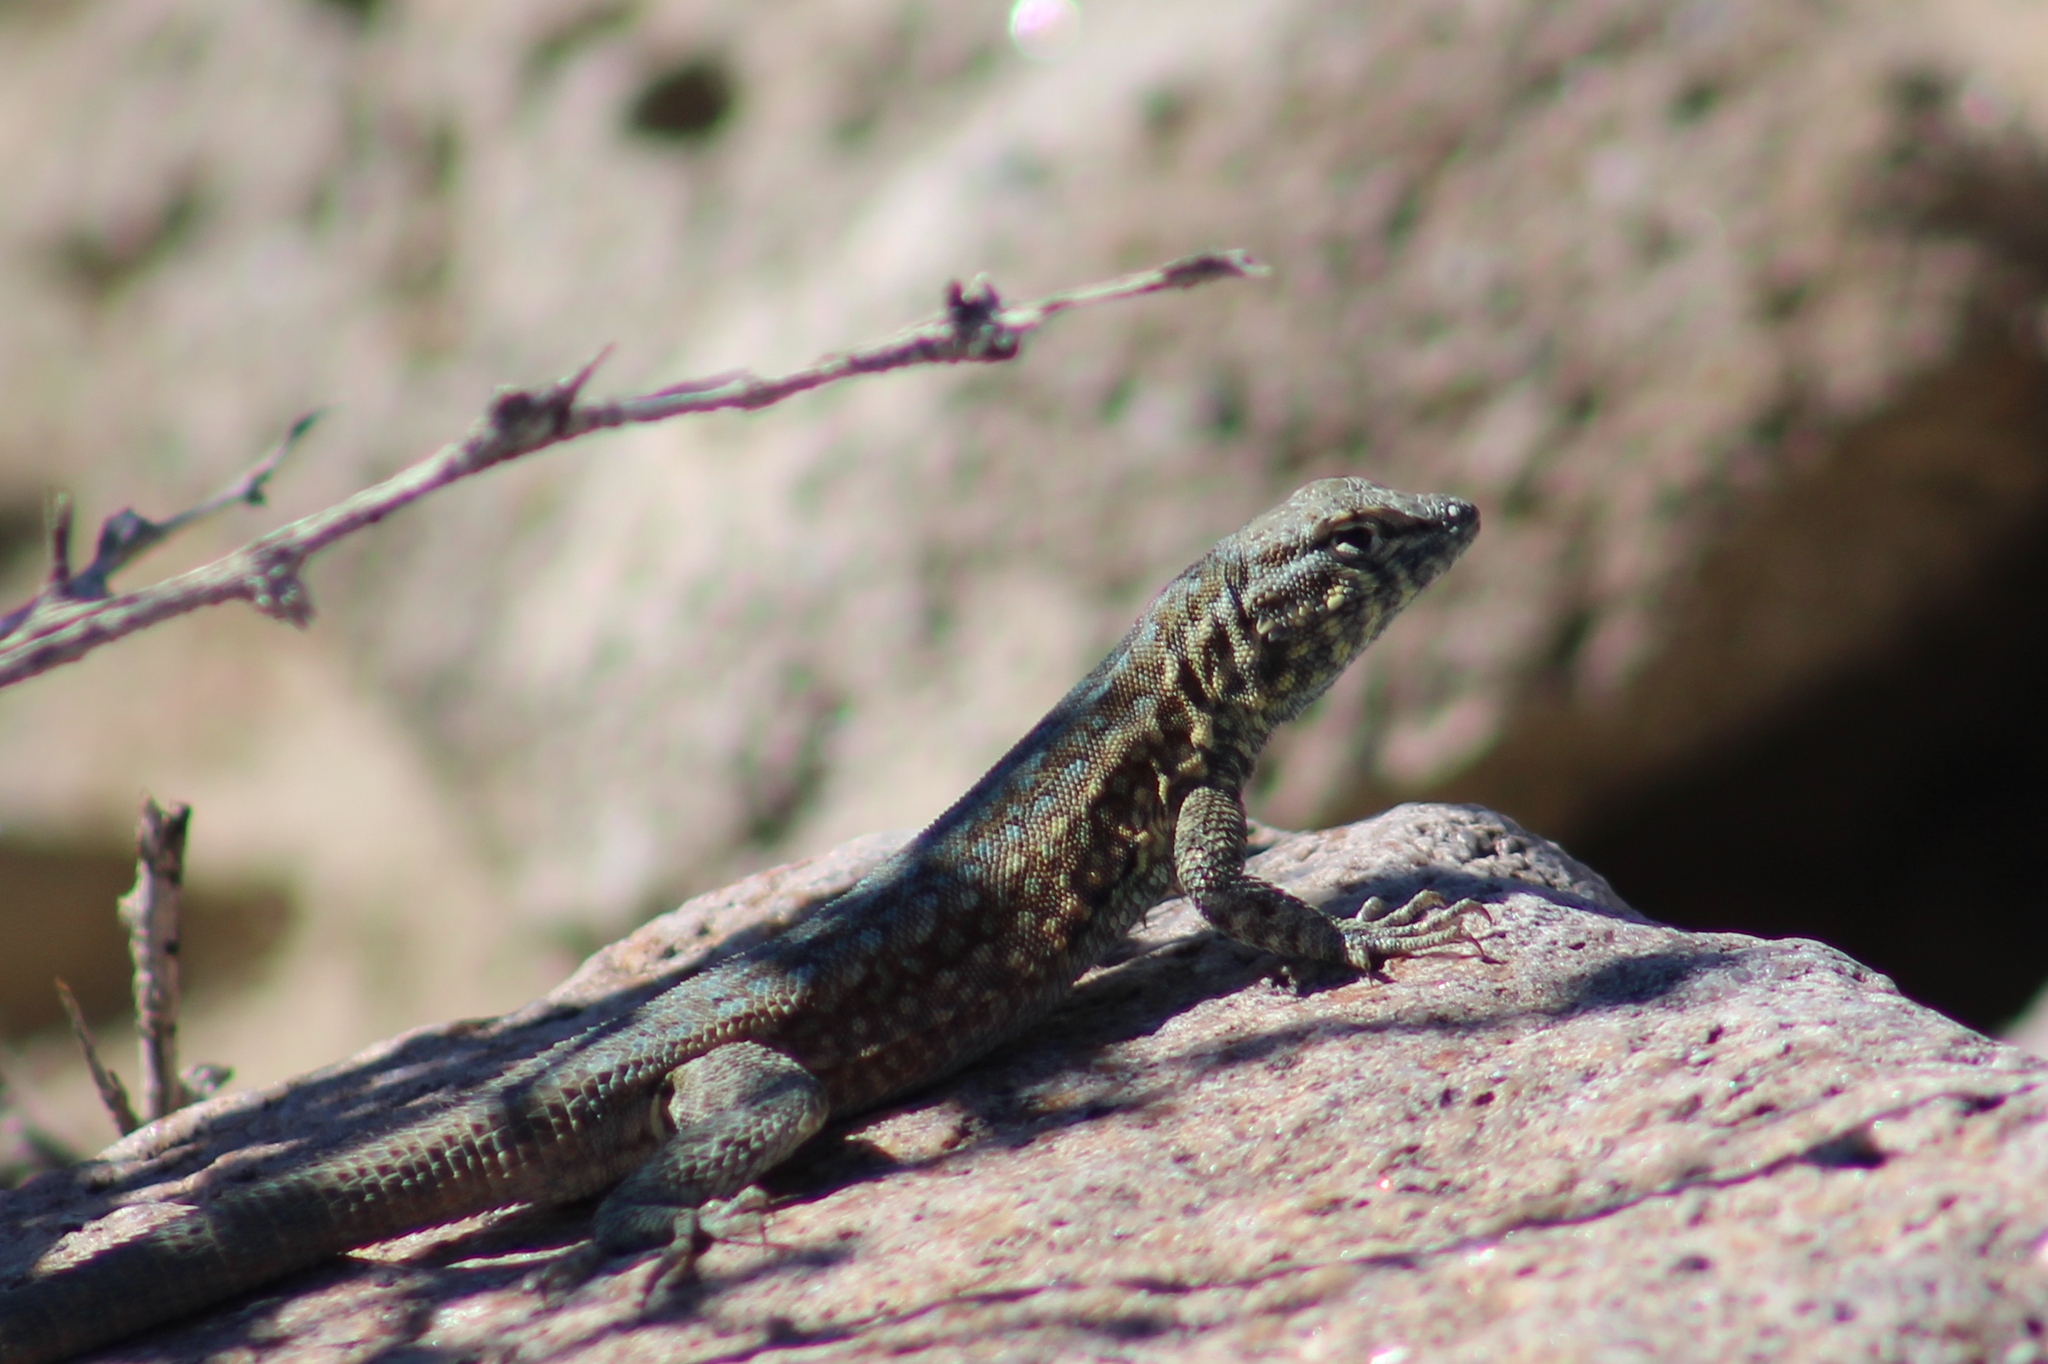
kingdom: Animalia
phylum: Chordata
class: Squamata
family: Phrynosomatidae
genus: Uta
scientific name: Uta stansburiana
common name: Side-blotched lizard
